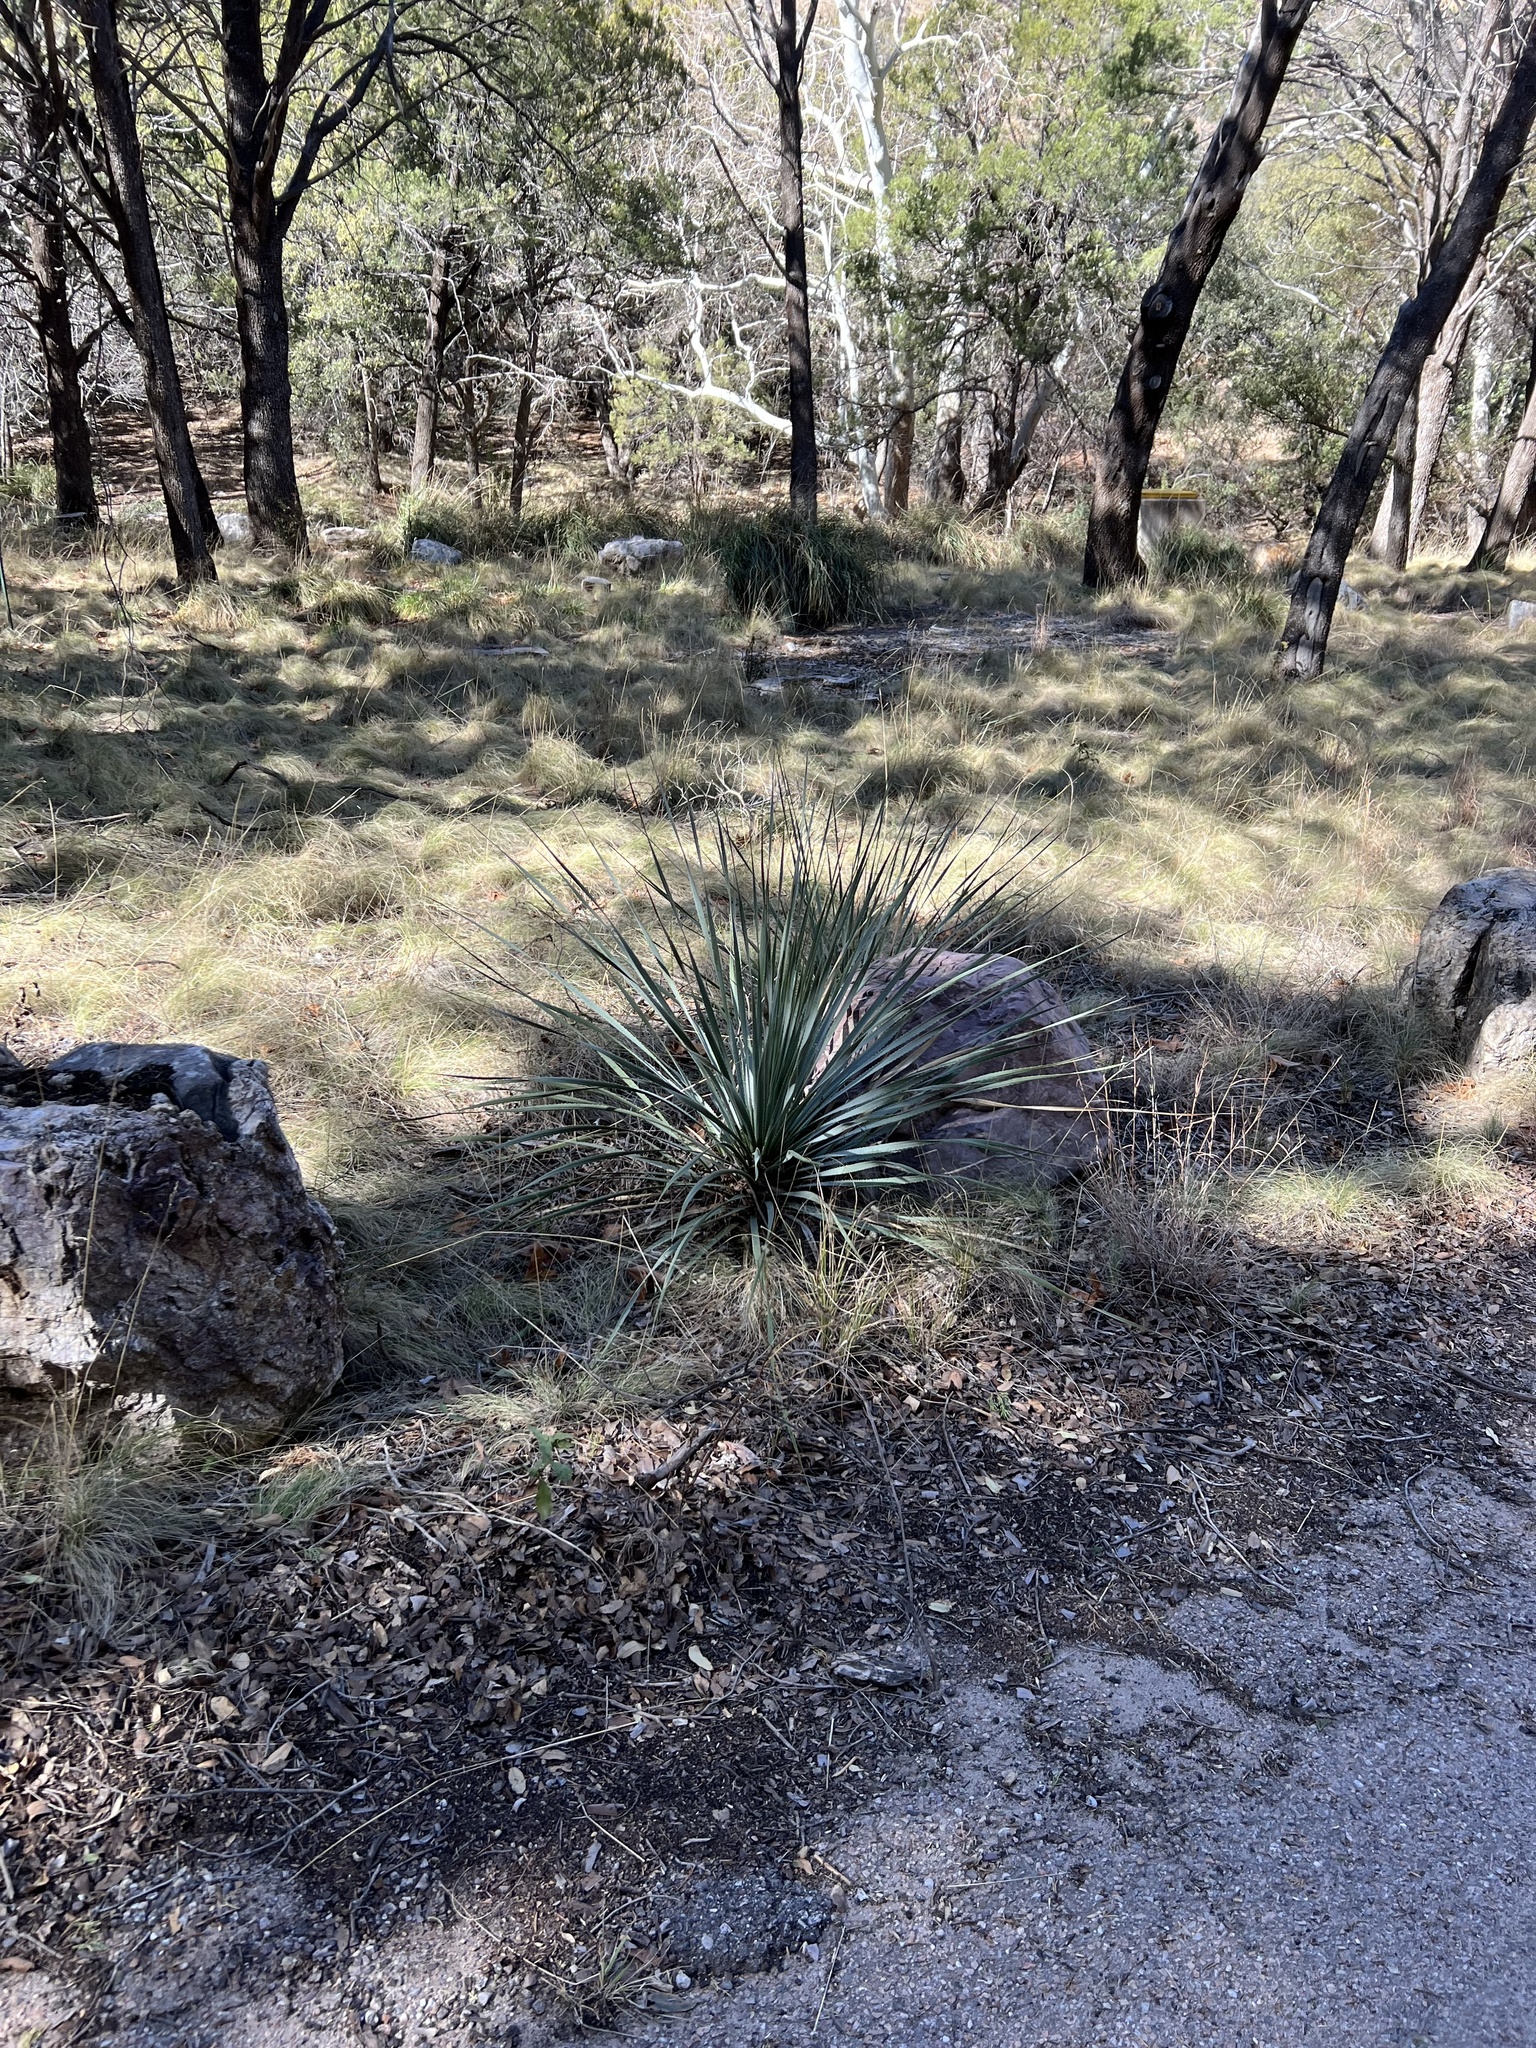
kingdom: Plantae
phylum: Tracheophyta
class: Liliopsida
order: Asparagales
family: Asparagaceae
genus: Dasylirion
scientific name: Dasylirion wheeleri
